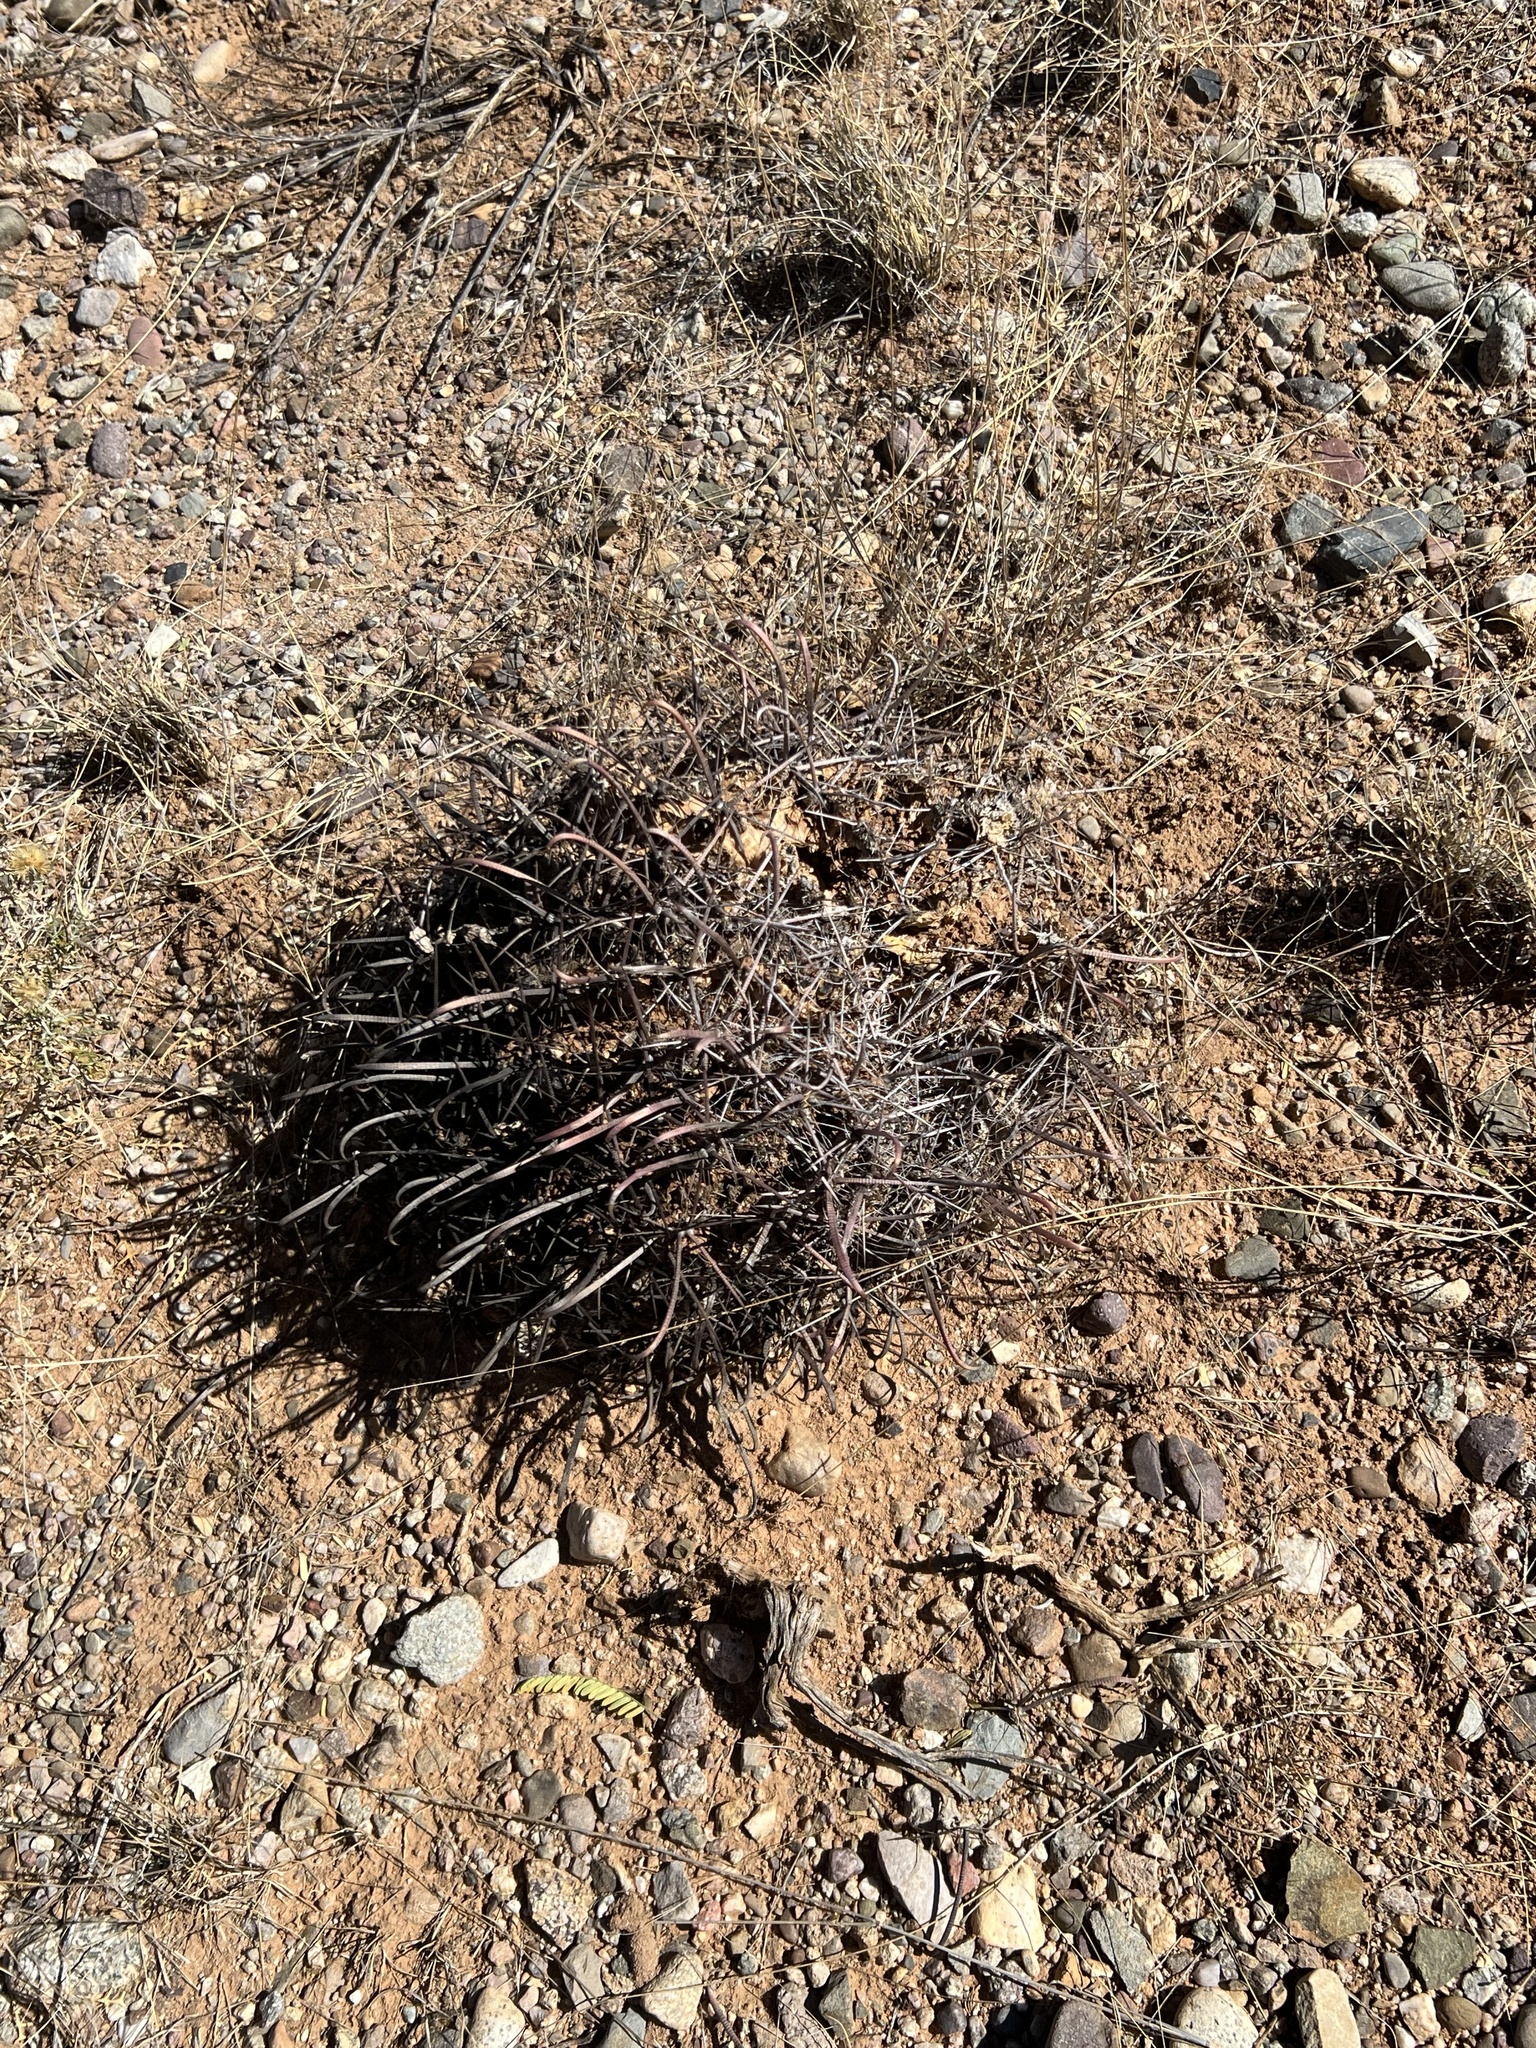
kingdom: Plantae
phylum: Tracheophyta
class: Magnoliopsida
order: Caryophyllales
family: Cactaceae
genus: Ferocactus
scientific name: Ferocactus wislizeni
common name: Candy barrel cactus
